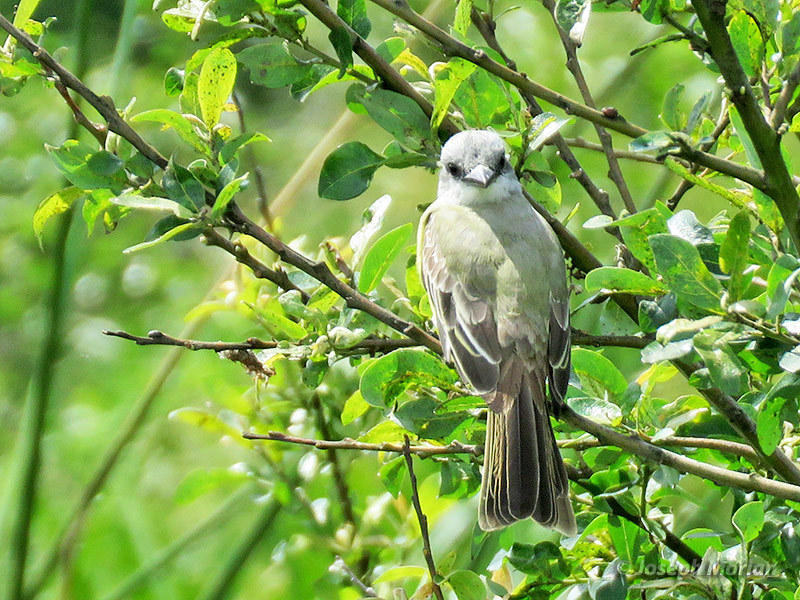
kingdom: Animalia
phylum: Chordata
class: Aves
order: Passeriformes
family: Tyrannidae
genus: Tyrannus
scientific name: Tyrannus melancholicus
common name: Tropical kingbird
